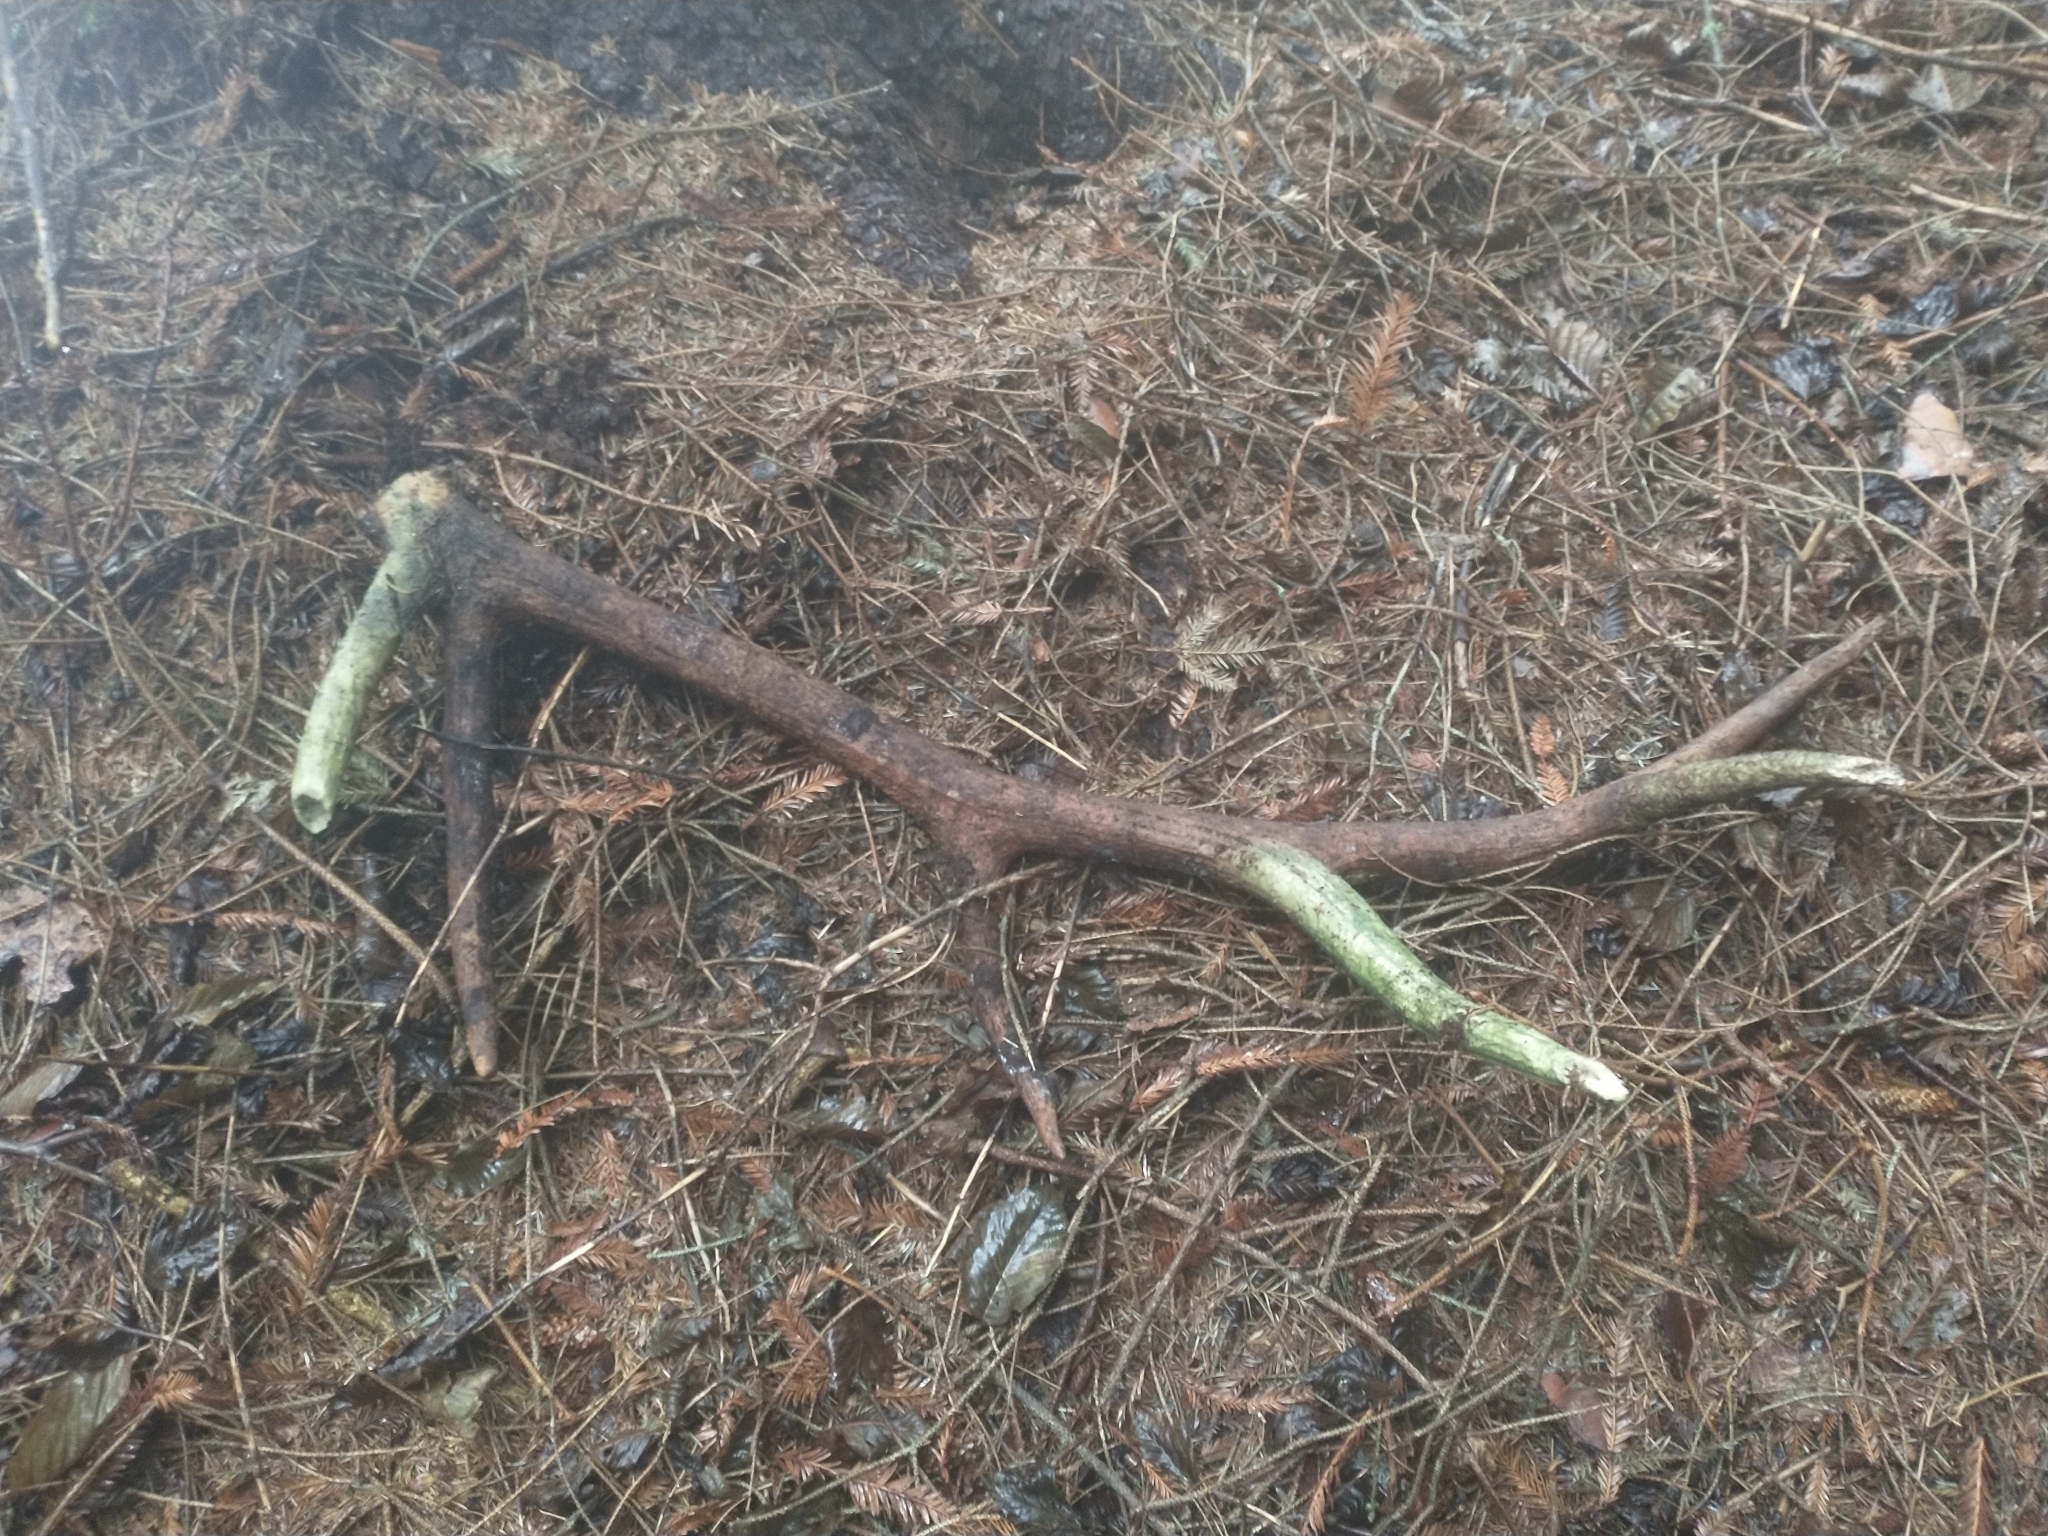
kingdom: Animalia
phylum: Chordata
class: Mammalia
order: Artiodactyla
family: Cervidae
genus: Cervus
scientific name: Cervus elaphus
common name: Red deer
